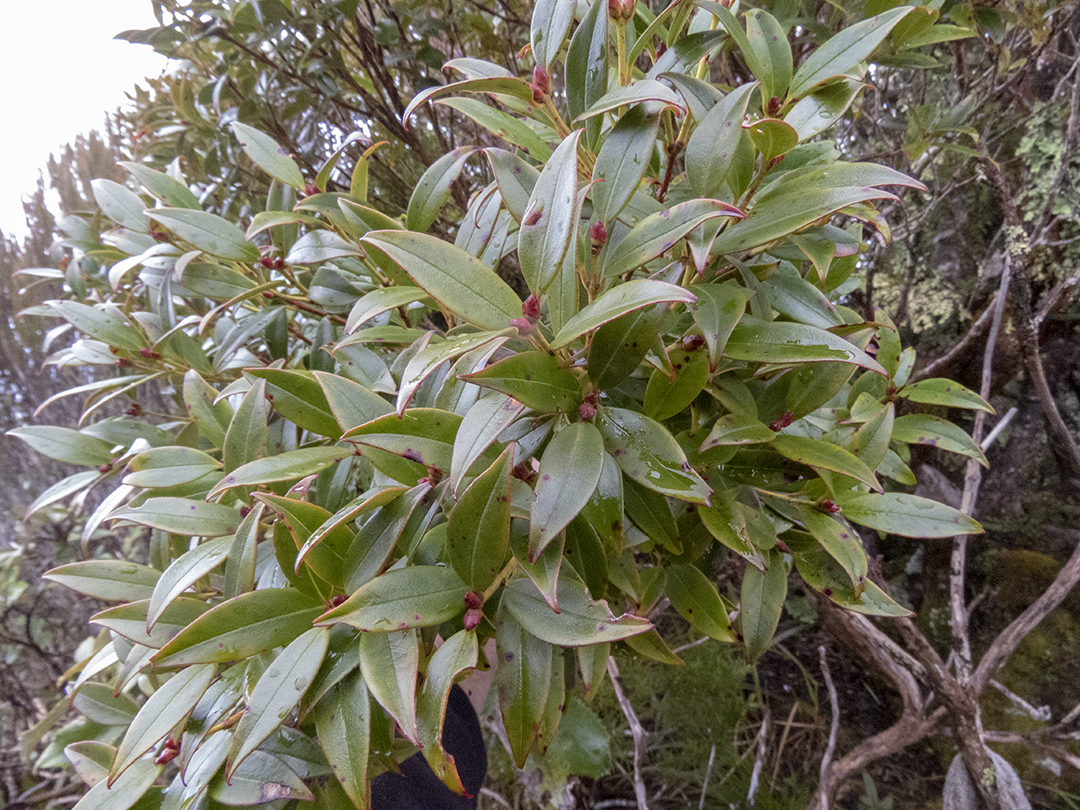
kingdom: Plantae
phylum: Tracheophyta
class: Magnoliopsida
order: Myrtales
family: Myrtaceae
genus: Metrosideros
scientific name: Metrosideros umbellata
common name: Southern rata
